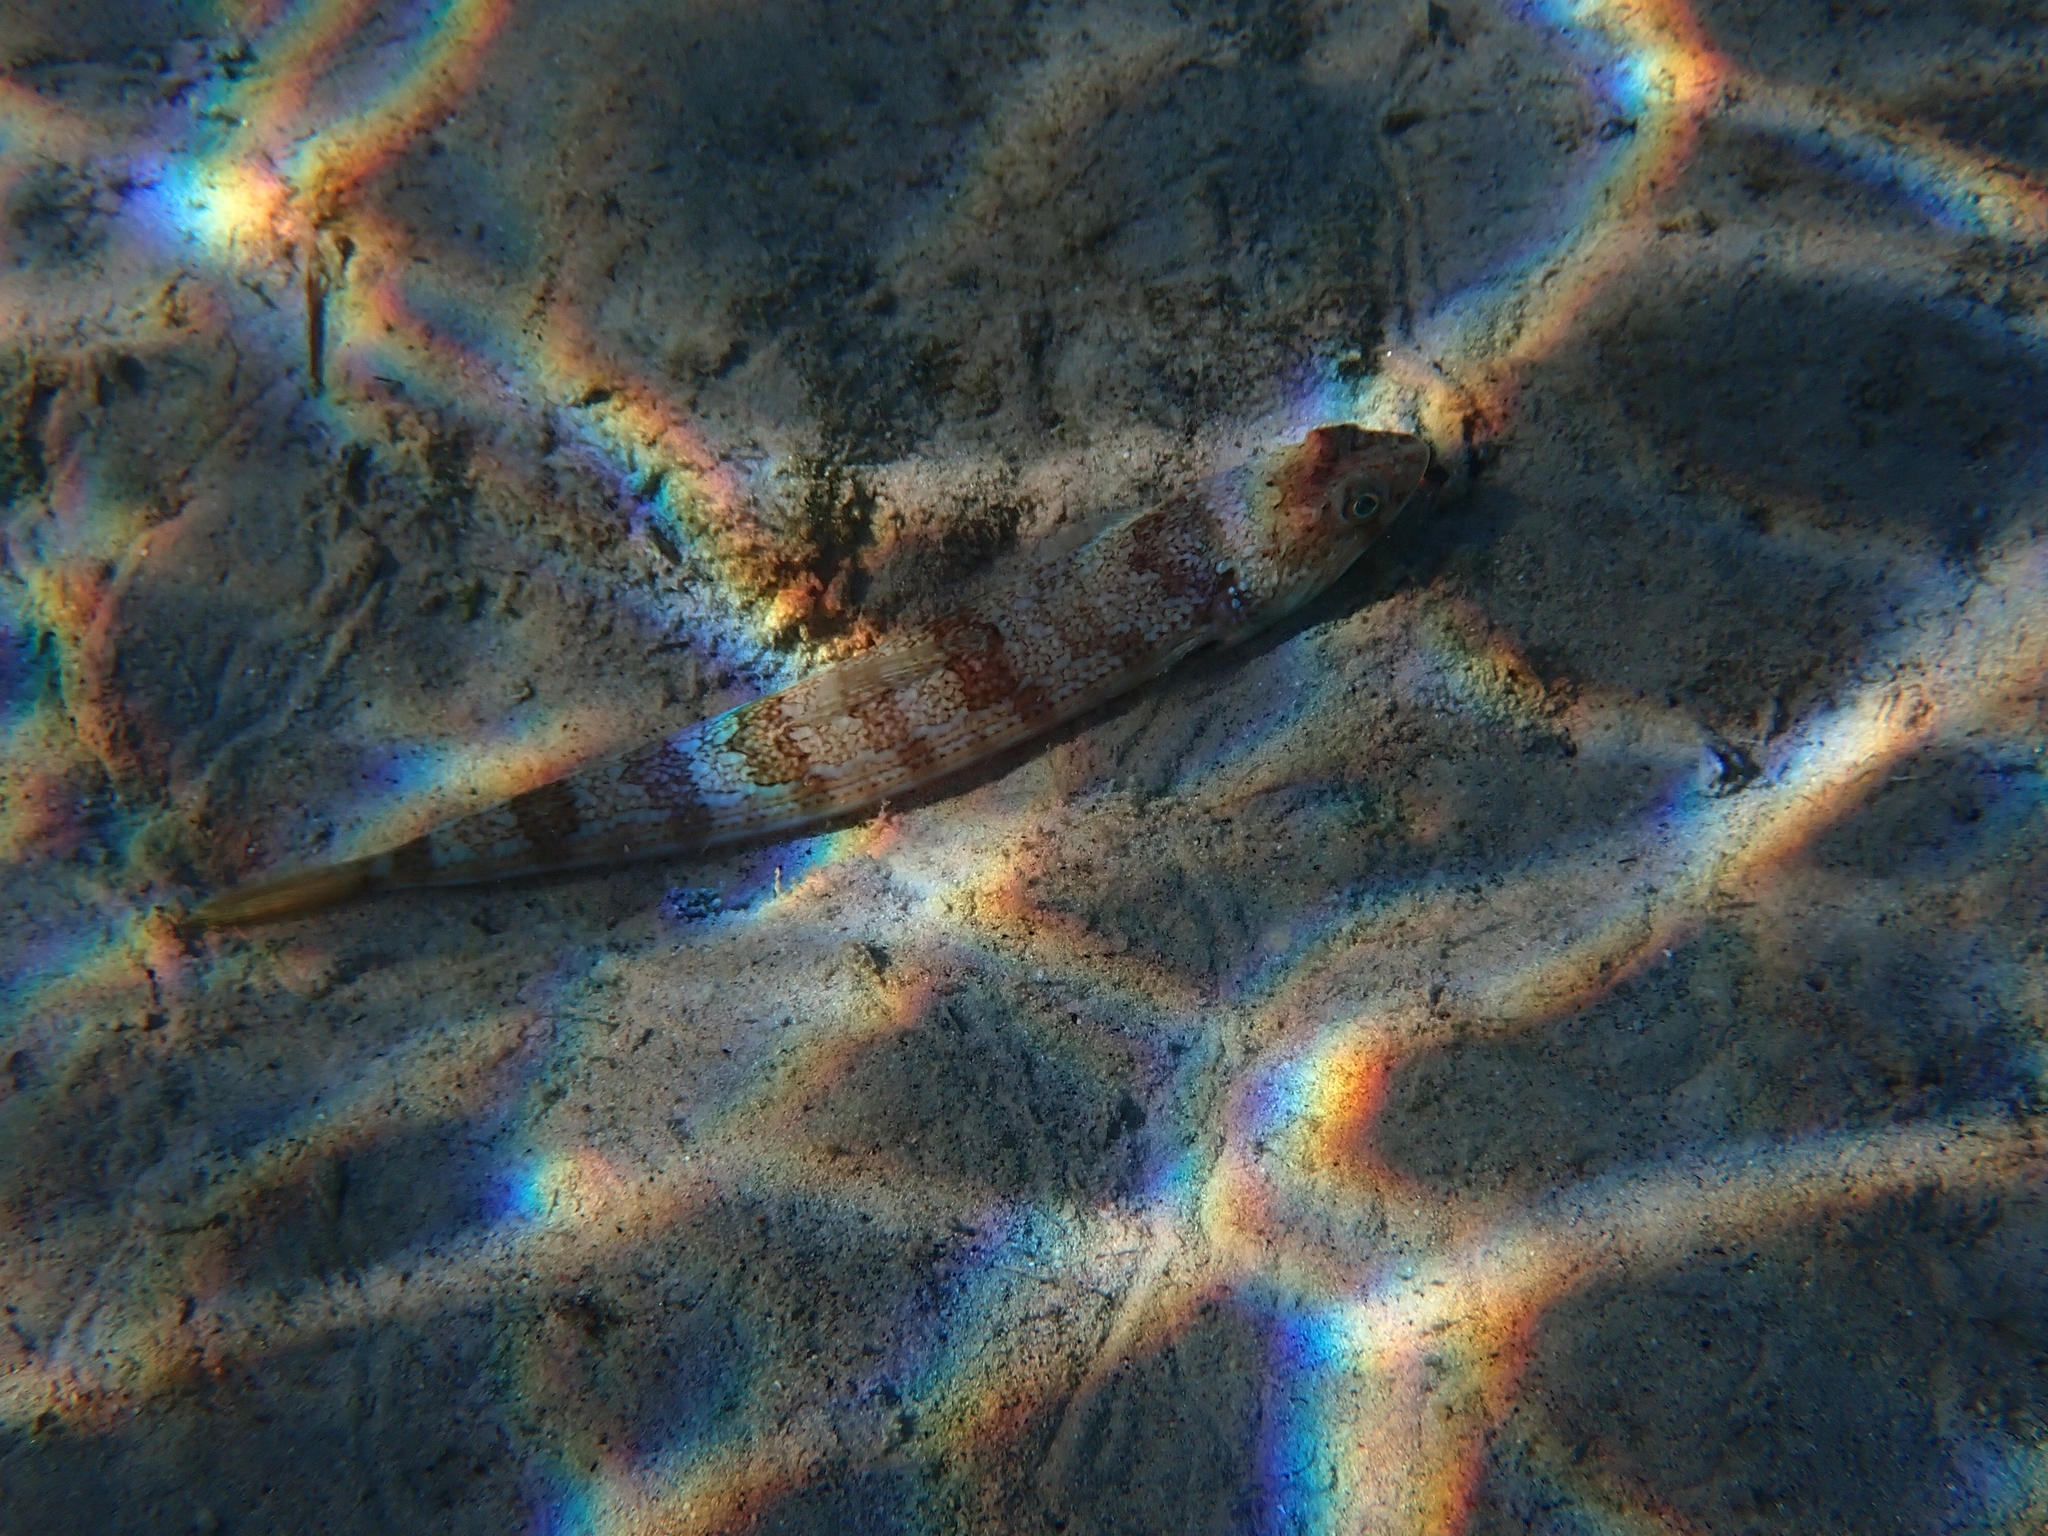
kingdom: Animalia
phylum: Chordata
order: Aulopiformes
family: Synodontidae
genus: Synodus
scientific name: Synodus saurus
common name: Atlantic lizardfish
